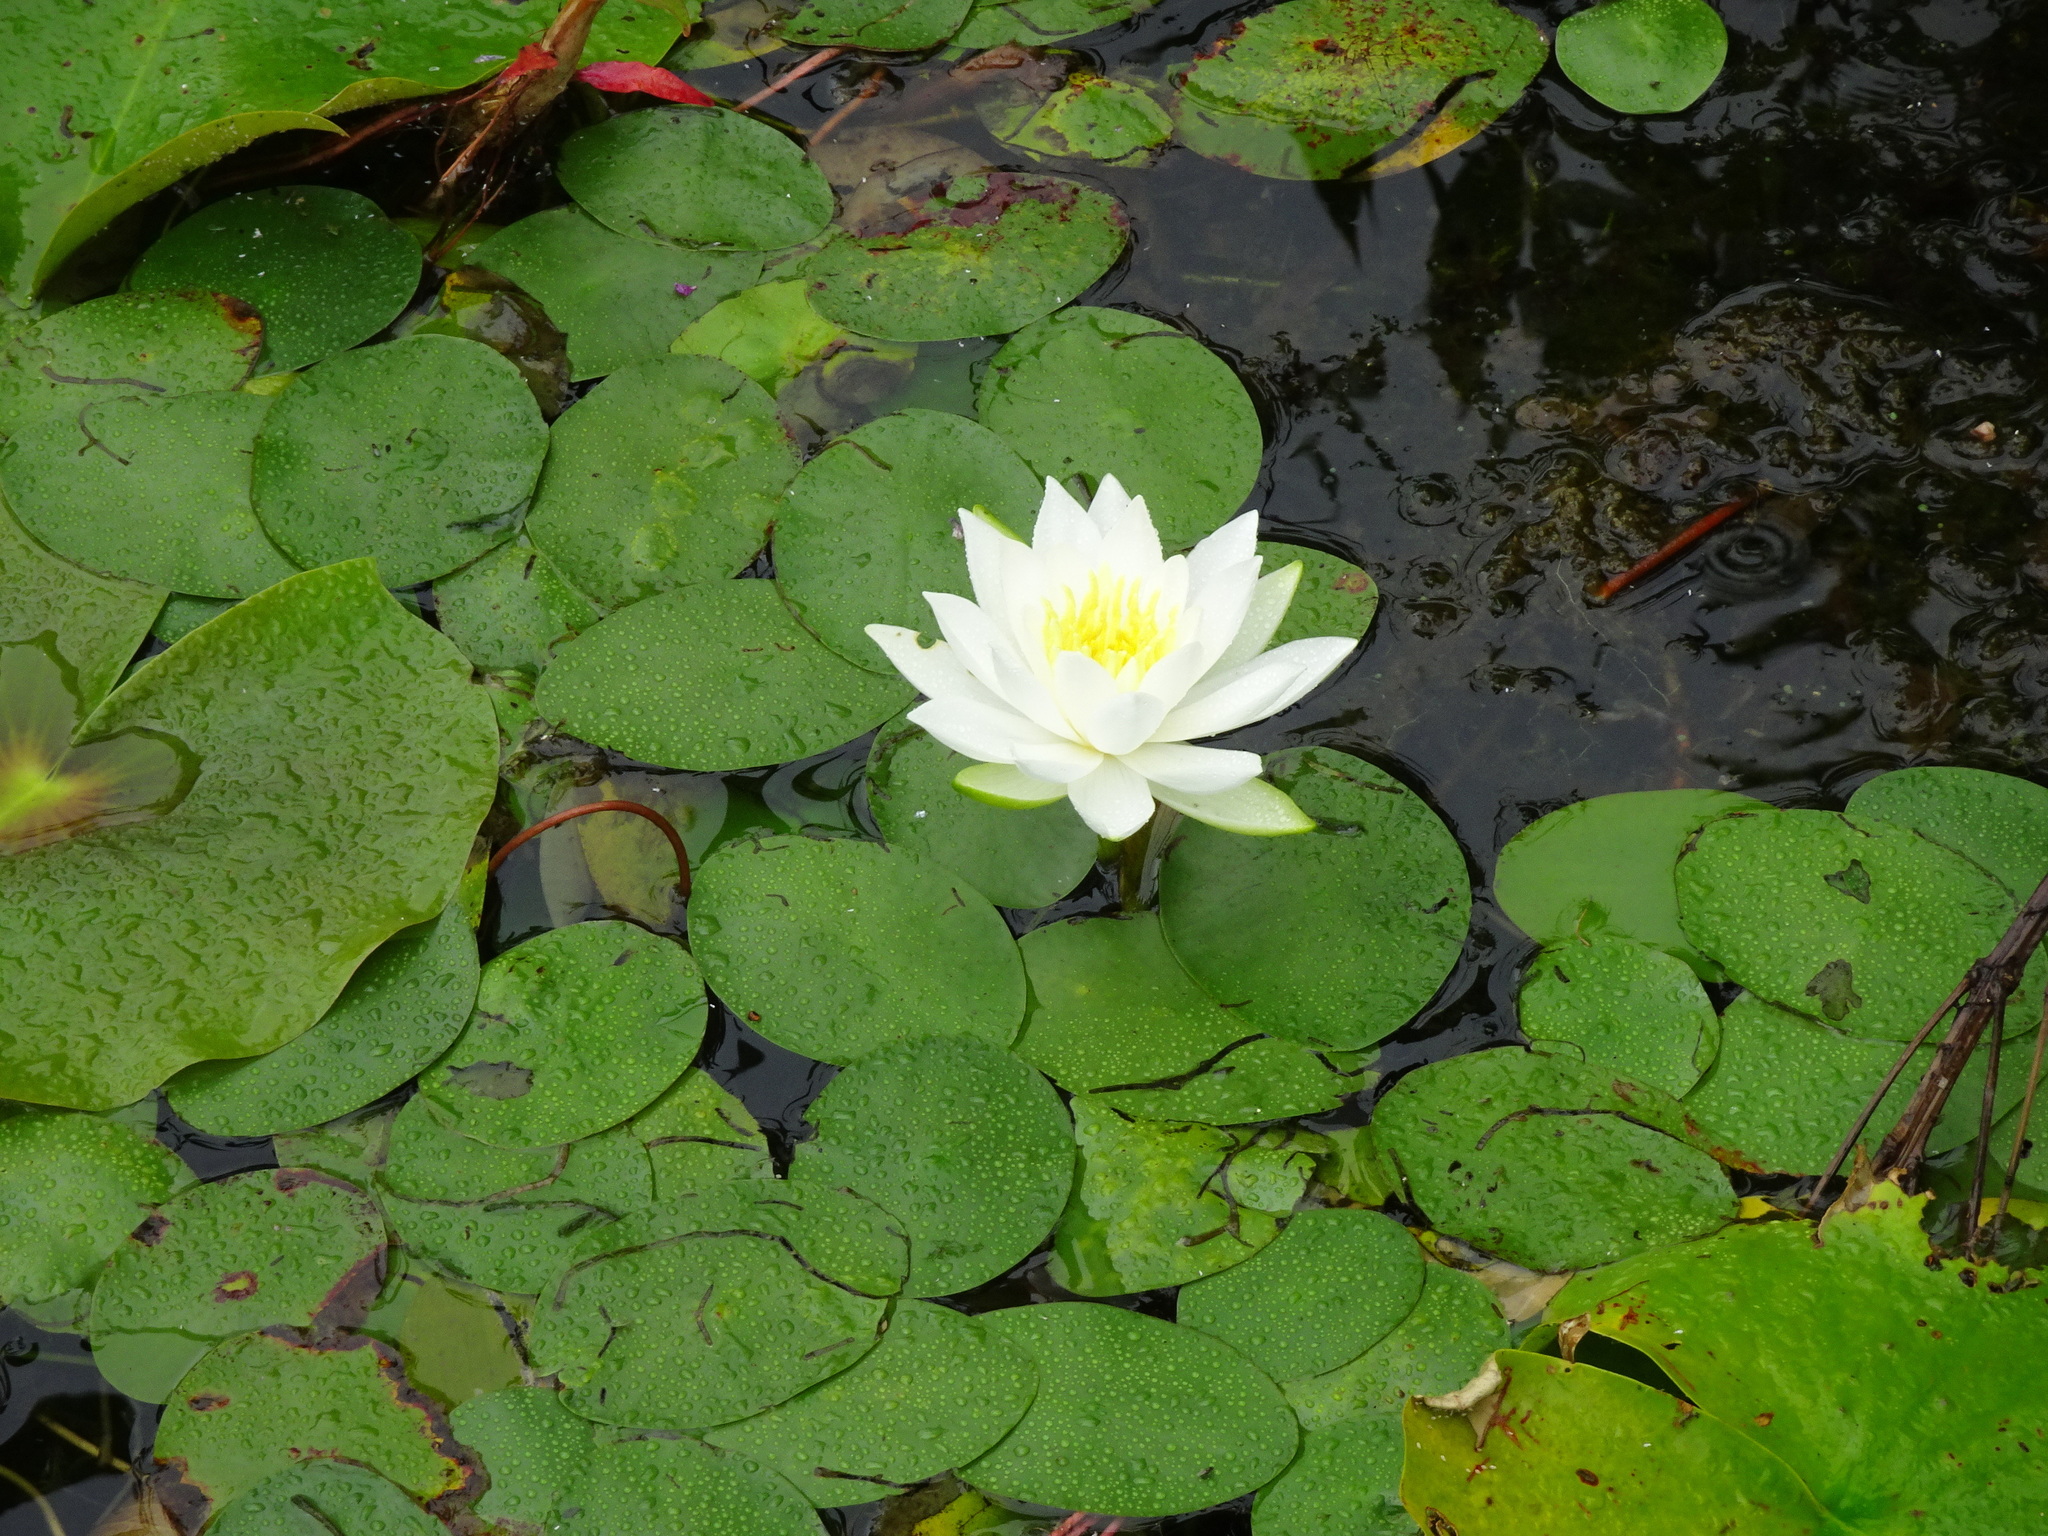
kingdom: Plantae
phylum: Tracheophyta
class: Magnoliopsida
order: Nymphaeales
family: Nymphaeaceae
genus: Nymphaea
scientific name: Nymphaea odorata
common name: Fragrant water-lily
